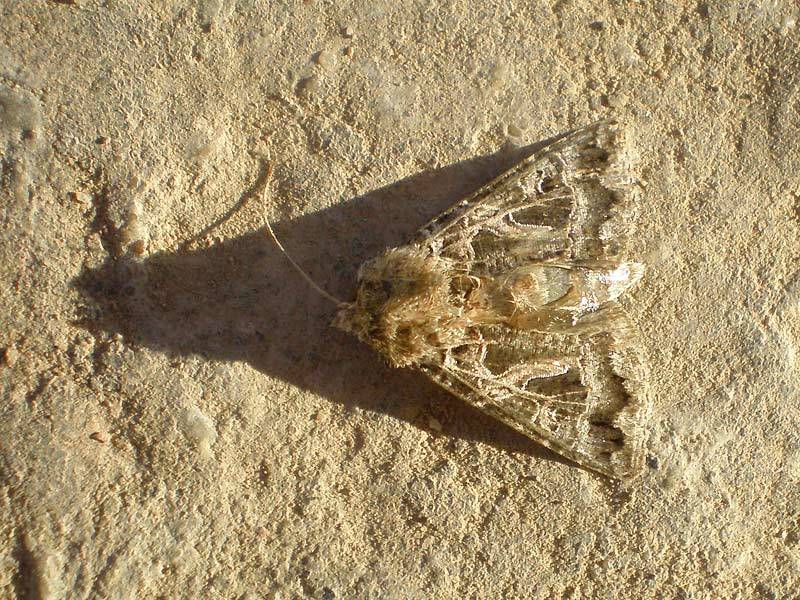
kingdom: Animalia
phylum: Arthropoda
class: Insecta
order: Lepidoptera
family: Noctuidae
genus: Thysanoplusia
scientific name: Thysanoplusia daubei
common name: Boathouse gem
